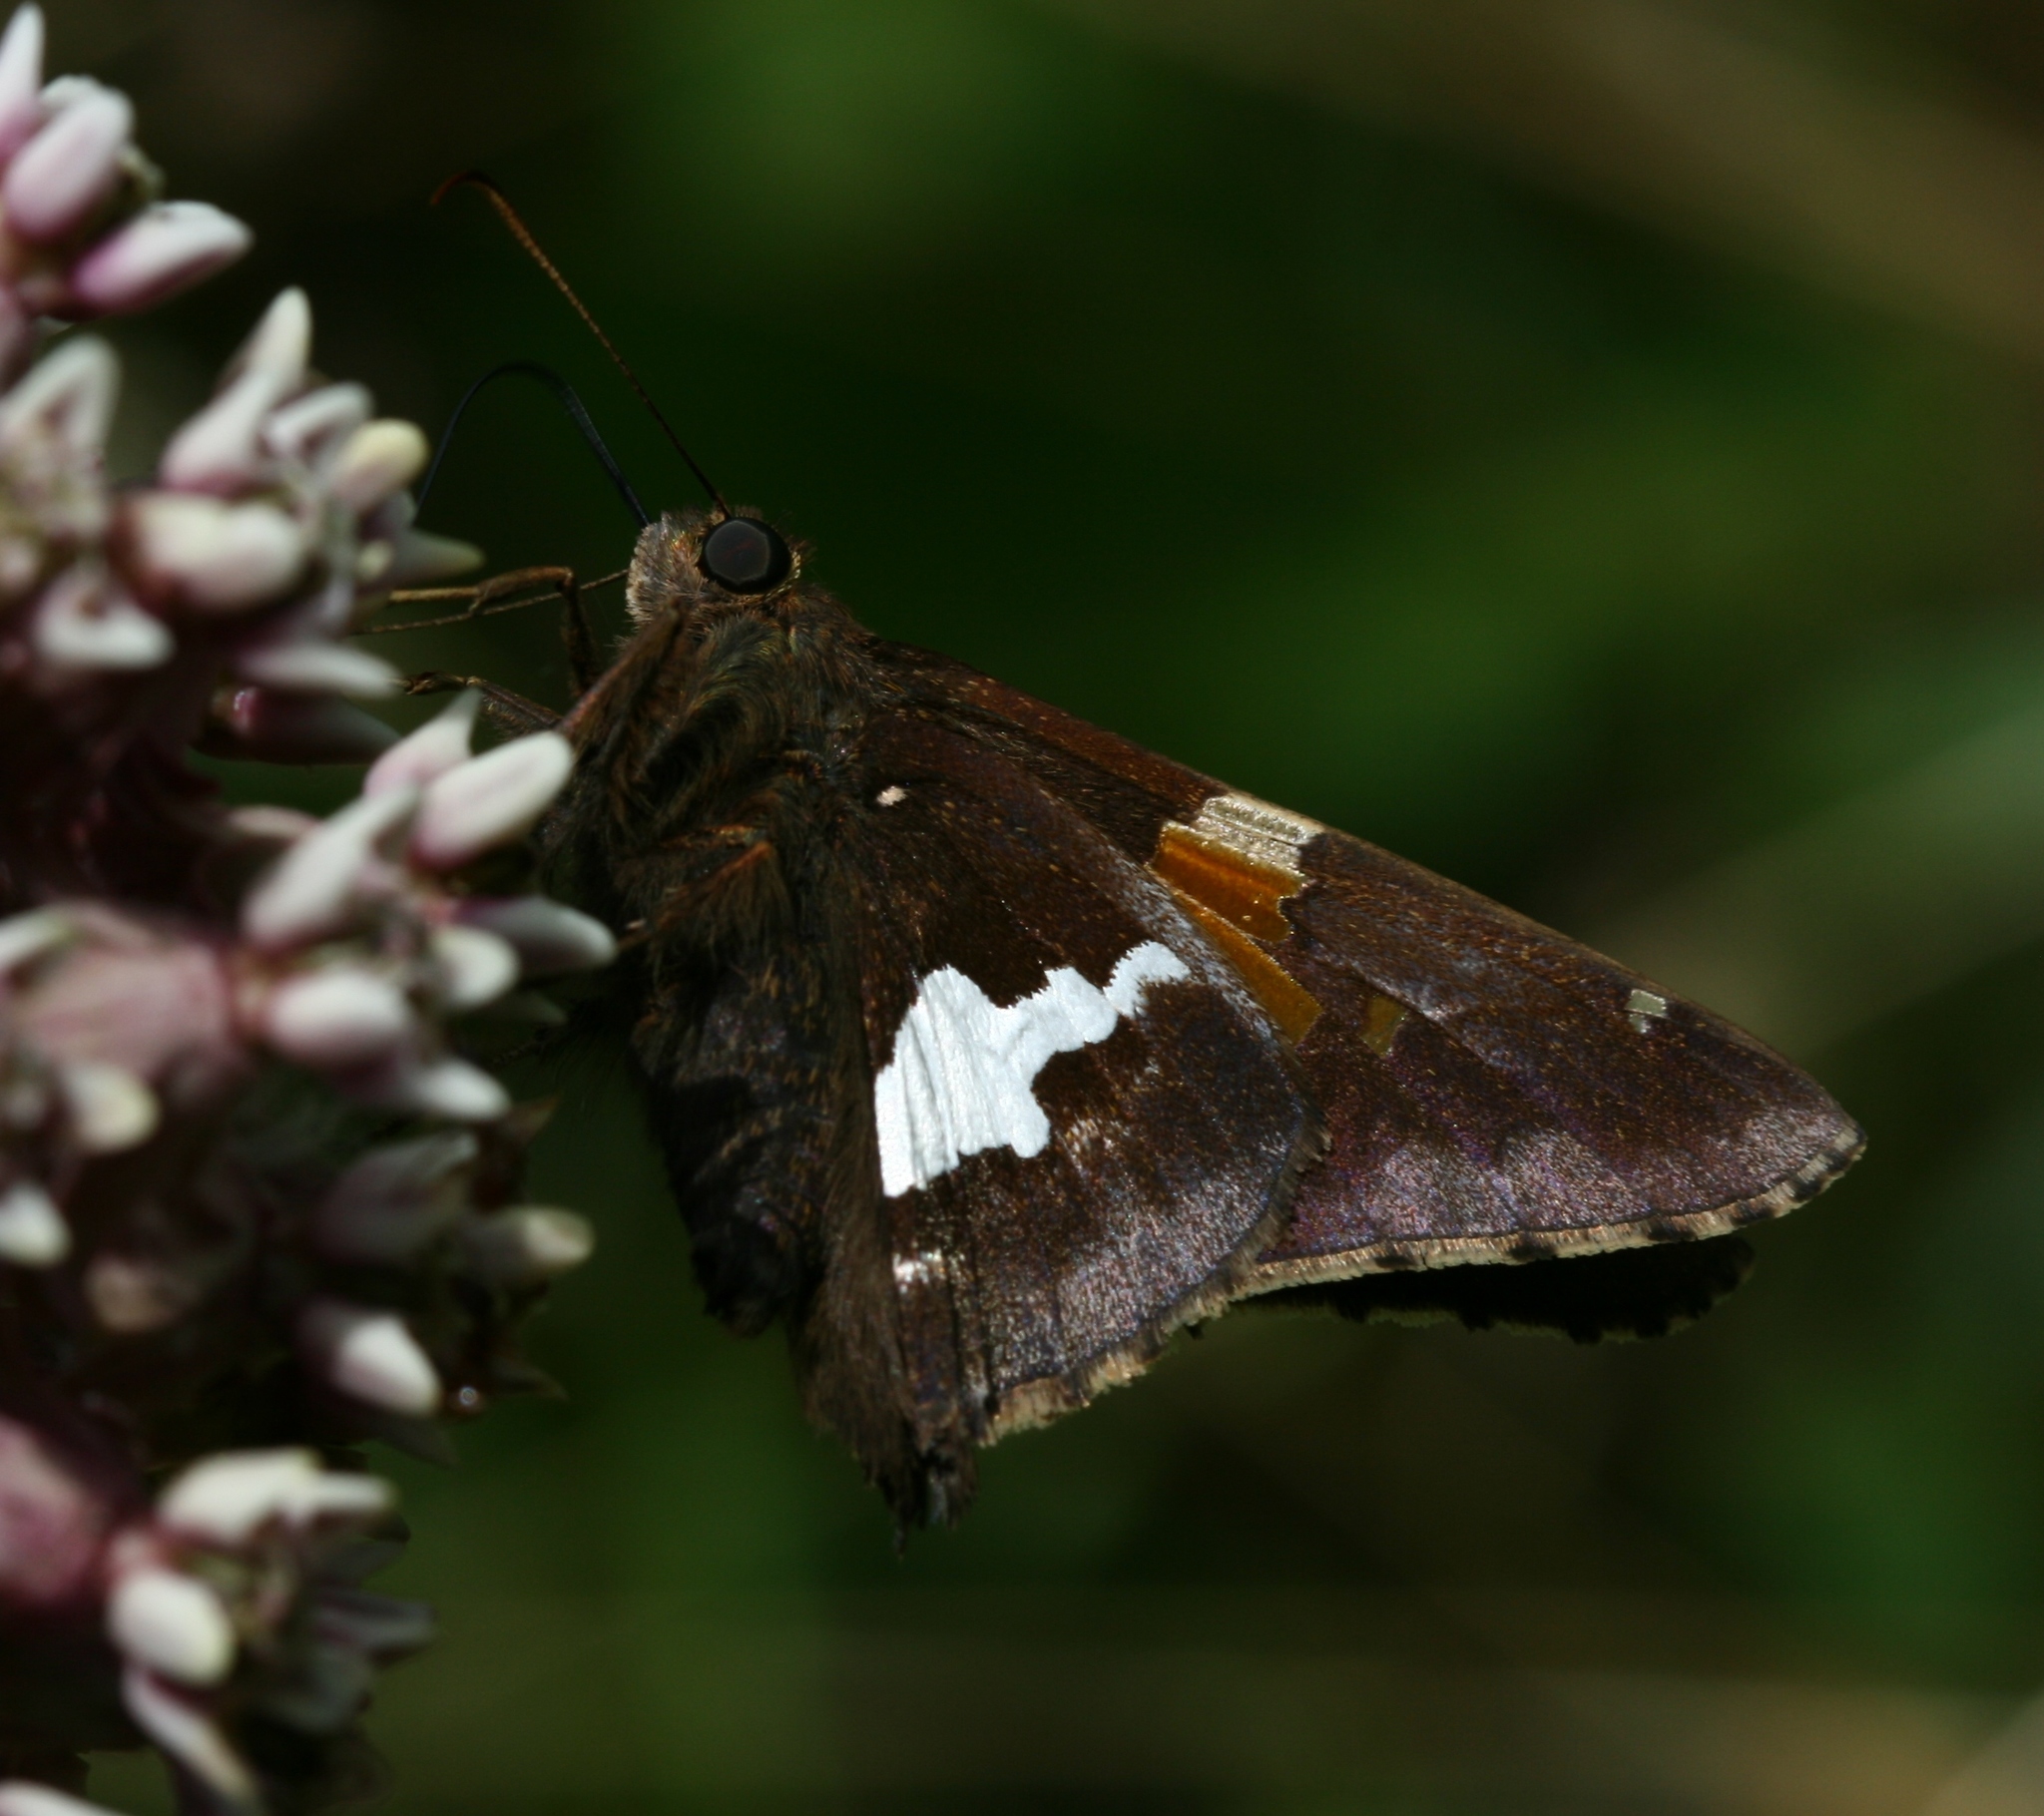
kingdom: Animalia
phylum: Arthropoda
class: Insecta
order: Lepidoptera
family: Hesperiidae
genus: Epargyreus
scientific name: Epargyreus clarus
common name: Silver-spotted skipper
